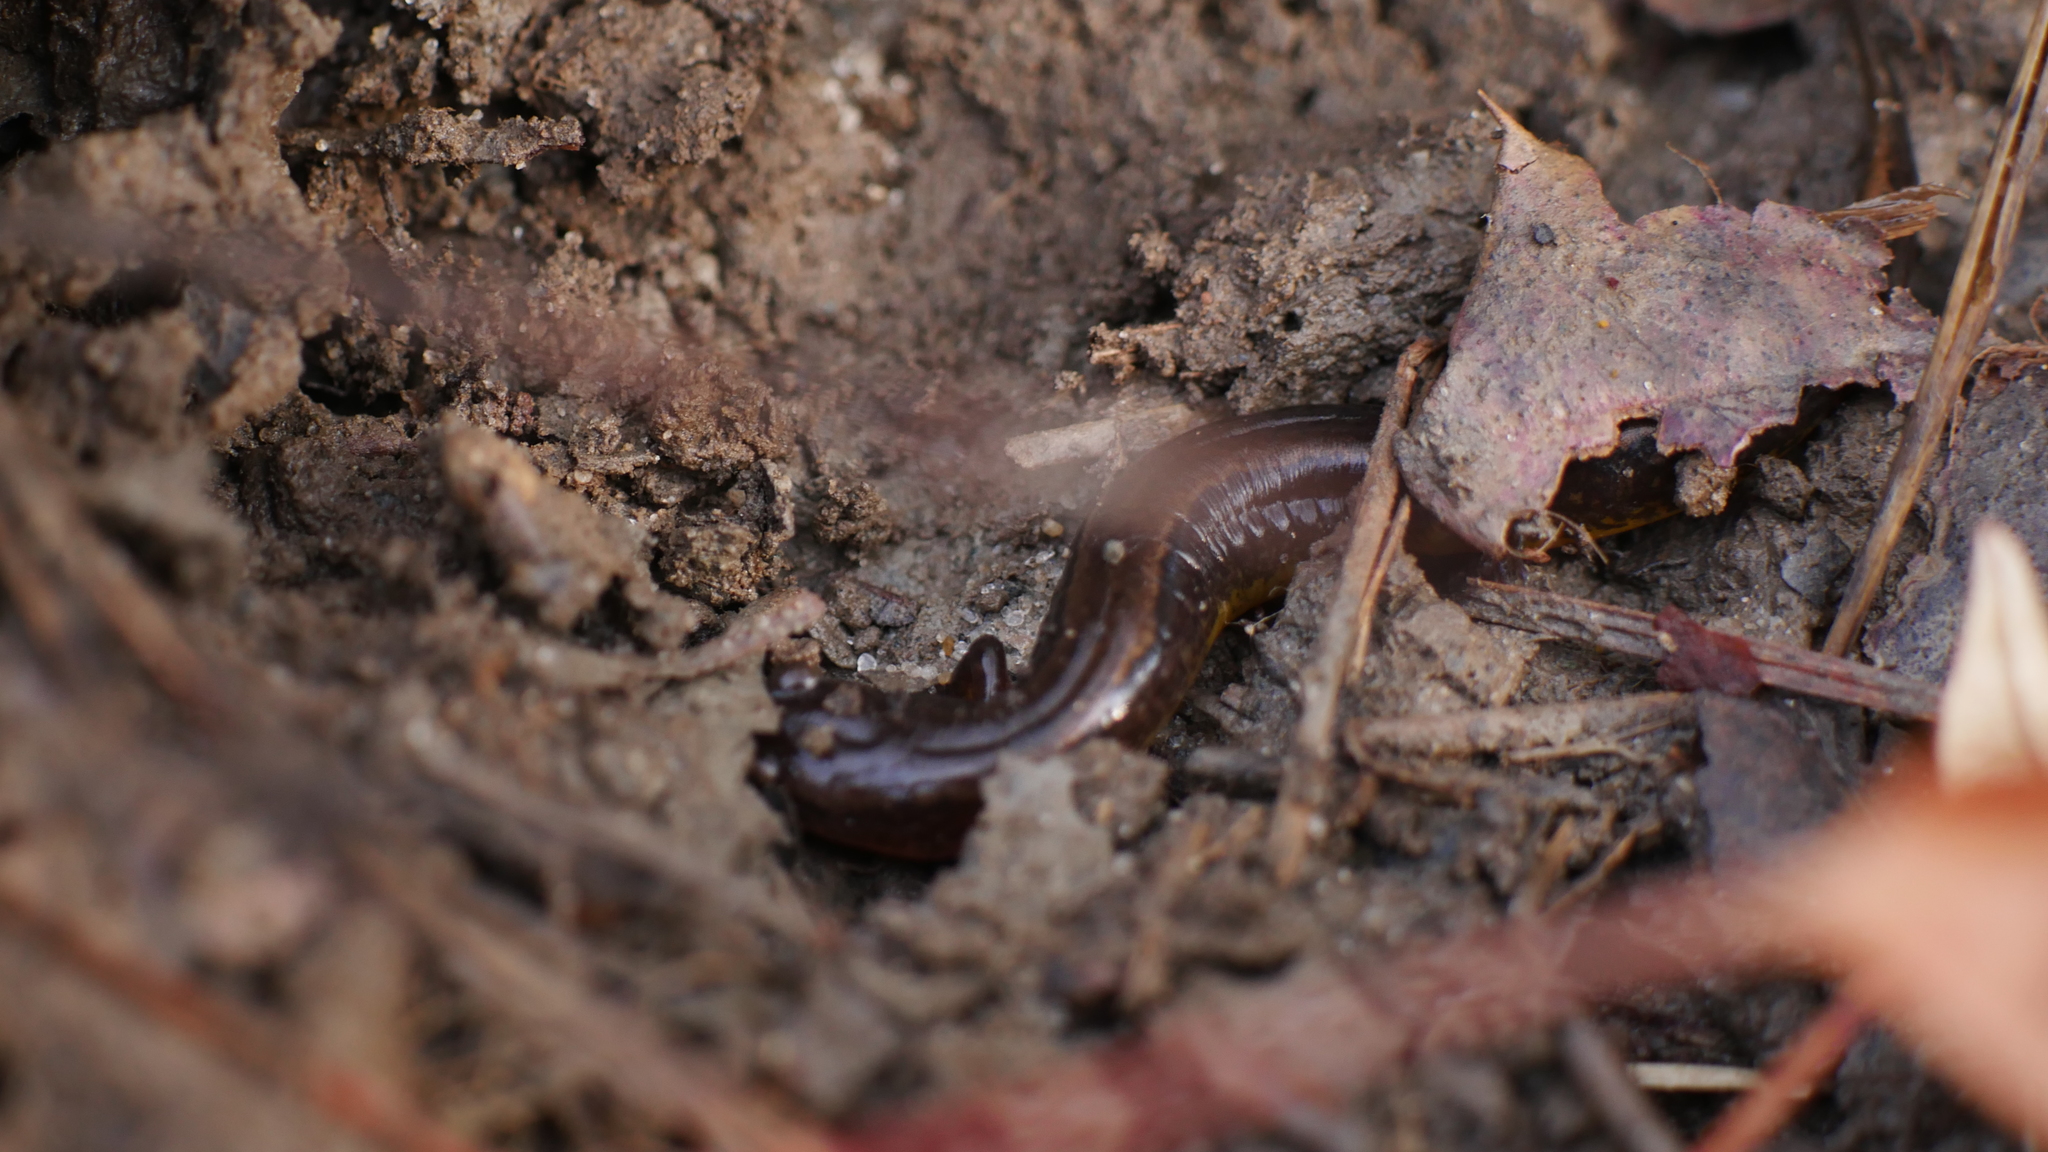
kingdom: Animalia
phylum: Chordata
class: Amphibia
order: Caudata
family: Plethodontidae
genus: Eurycea
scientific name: Eurycea cirrigera
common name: Southern two-lined salamander
